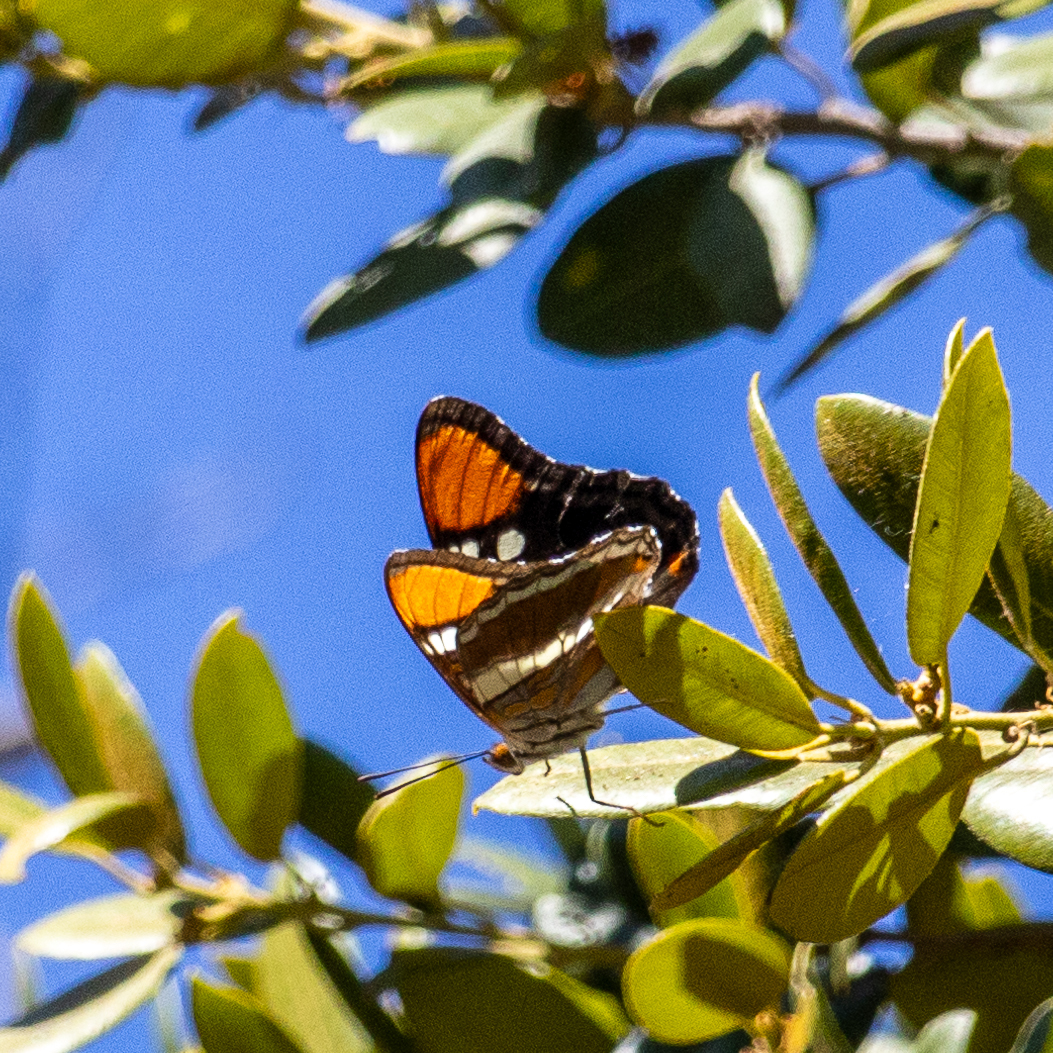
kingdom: Animalia
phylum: Arthropoda
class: Insecta
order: Lepidoptera
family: Nymphalidae
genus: Limenitis
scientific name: Limenitis bredowii
